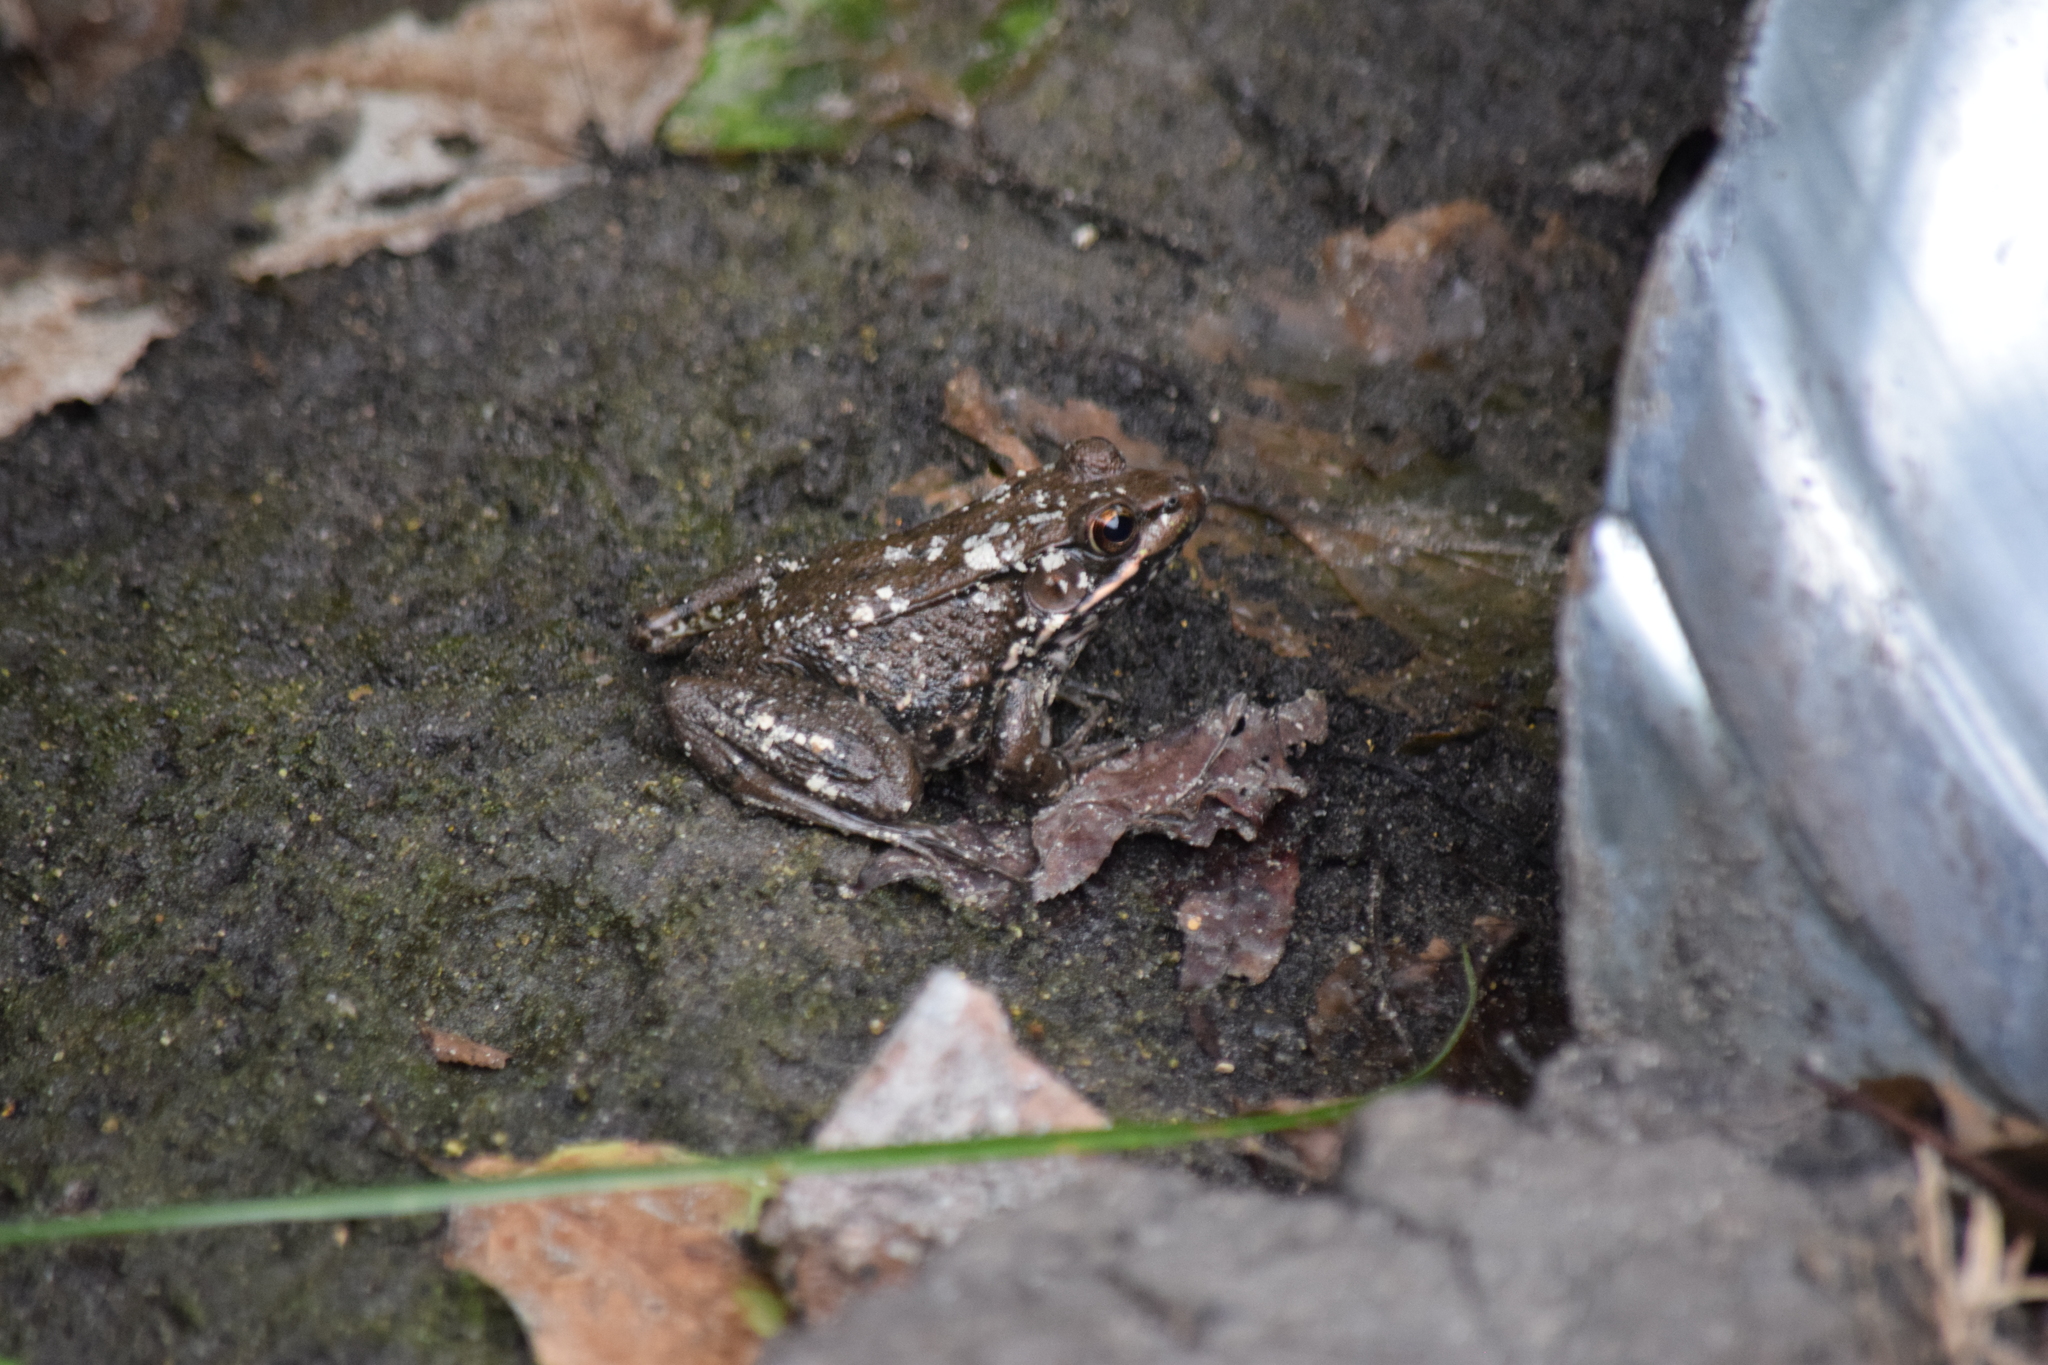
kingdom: Animalia
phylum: Chordata
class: Amphibia
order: Anura
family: Ranidae
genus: Lithobates
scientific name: Lithobates clamitans
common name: Green frog
